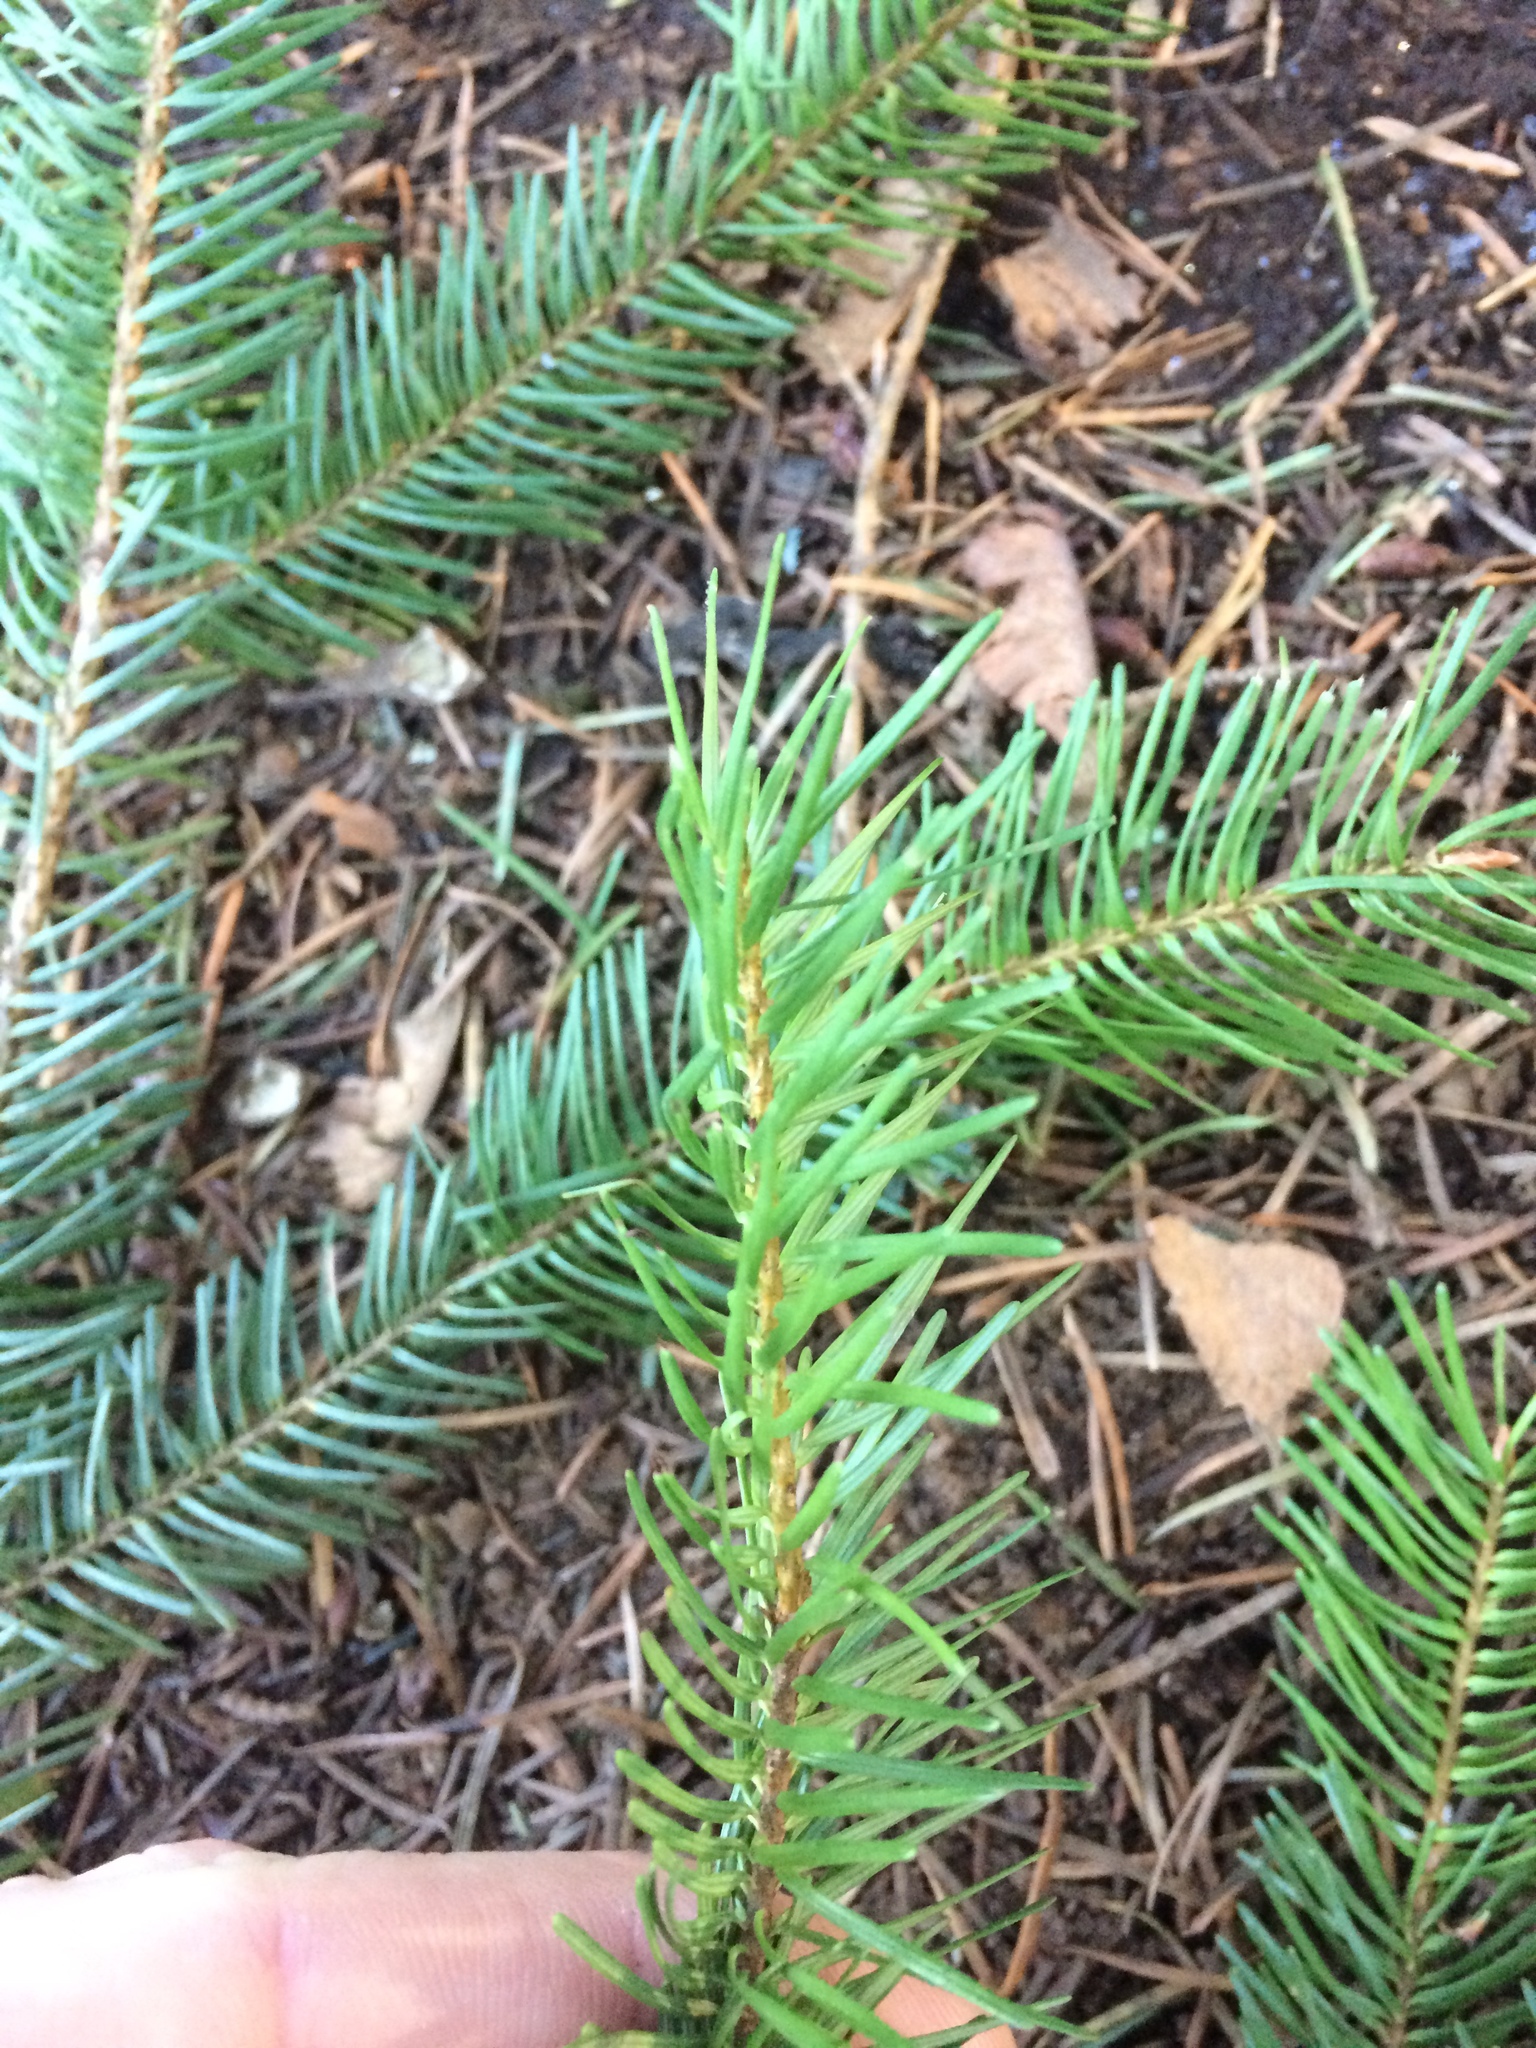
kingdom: Plantae
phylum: Tracheophyta
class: Pinopsida
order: Pinales
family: Pinaceae
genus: Pseudotsuga
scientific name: Pseudotsuga menziesii
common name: Douglas fir
